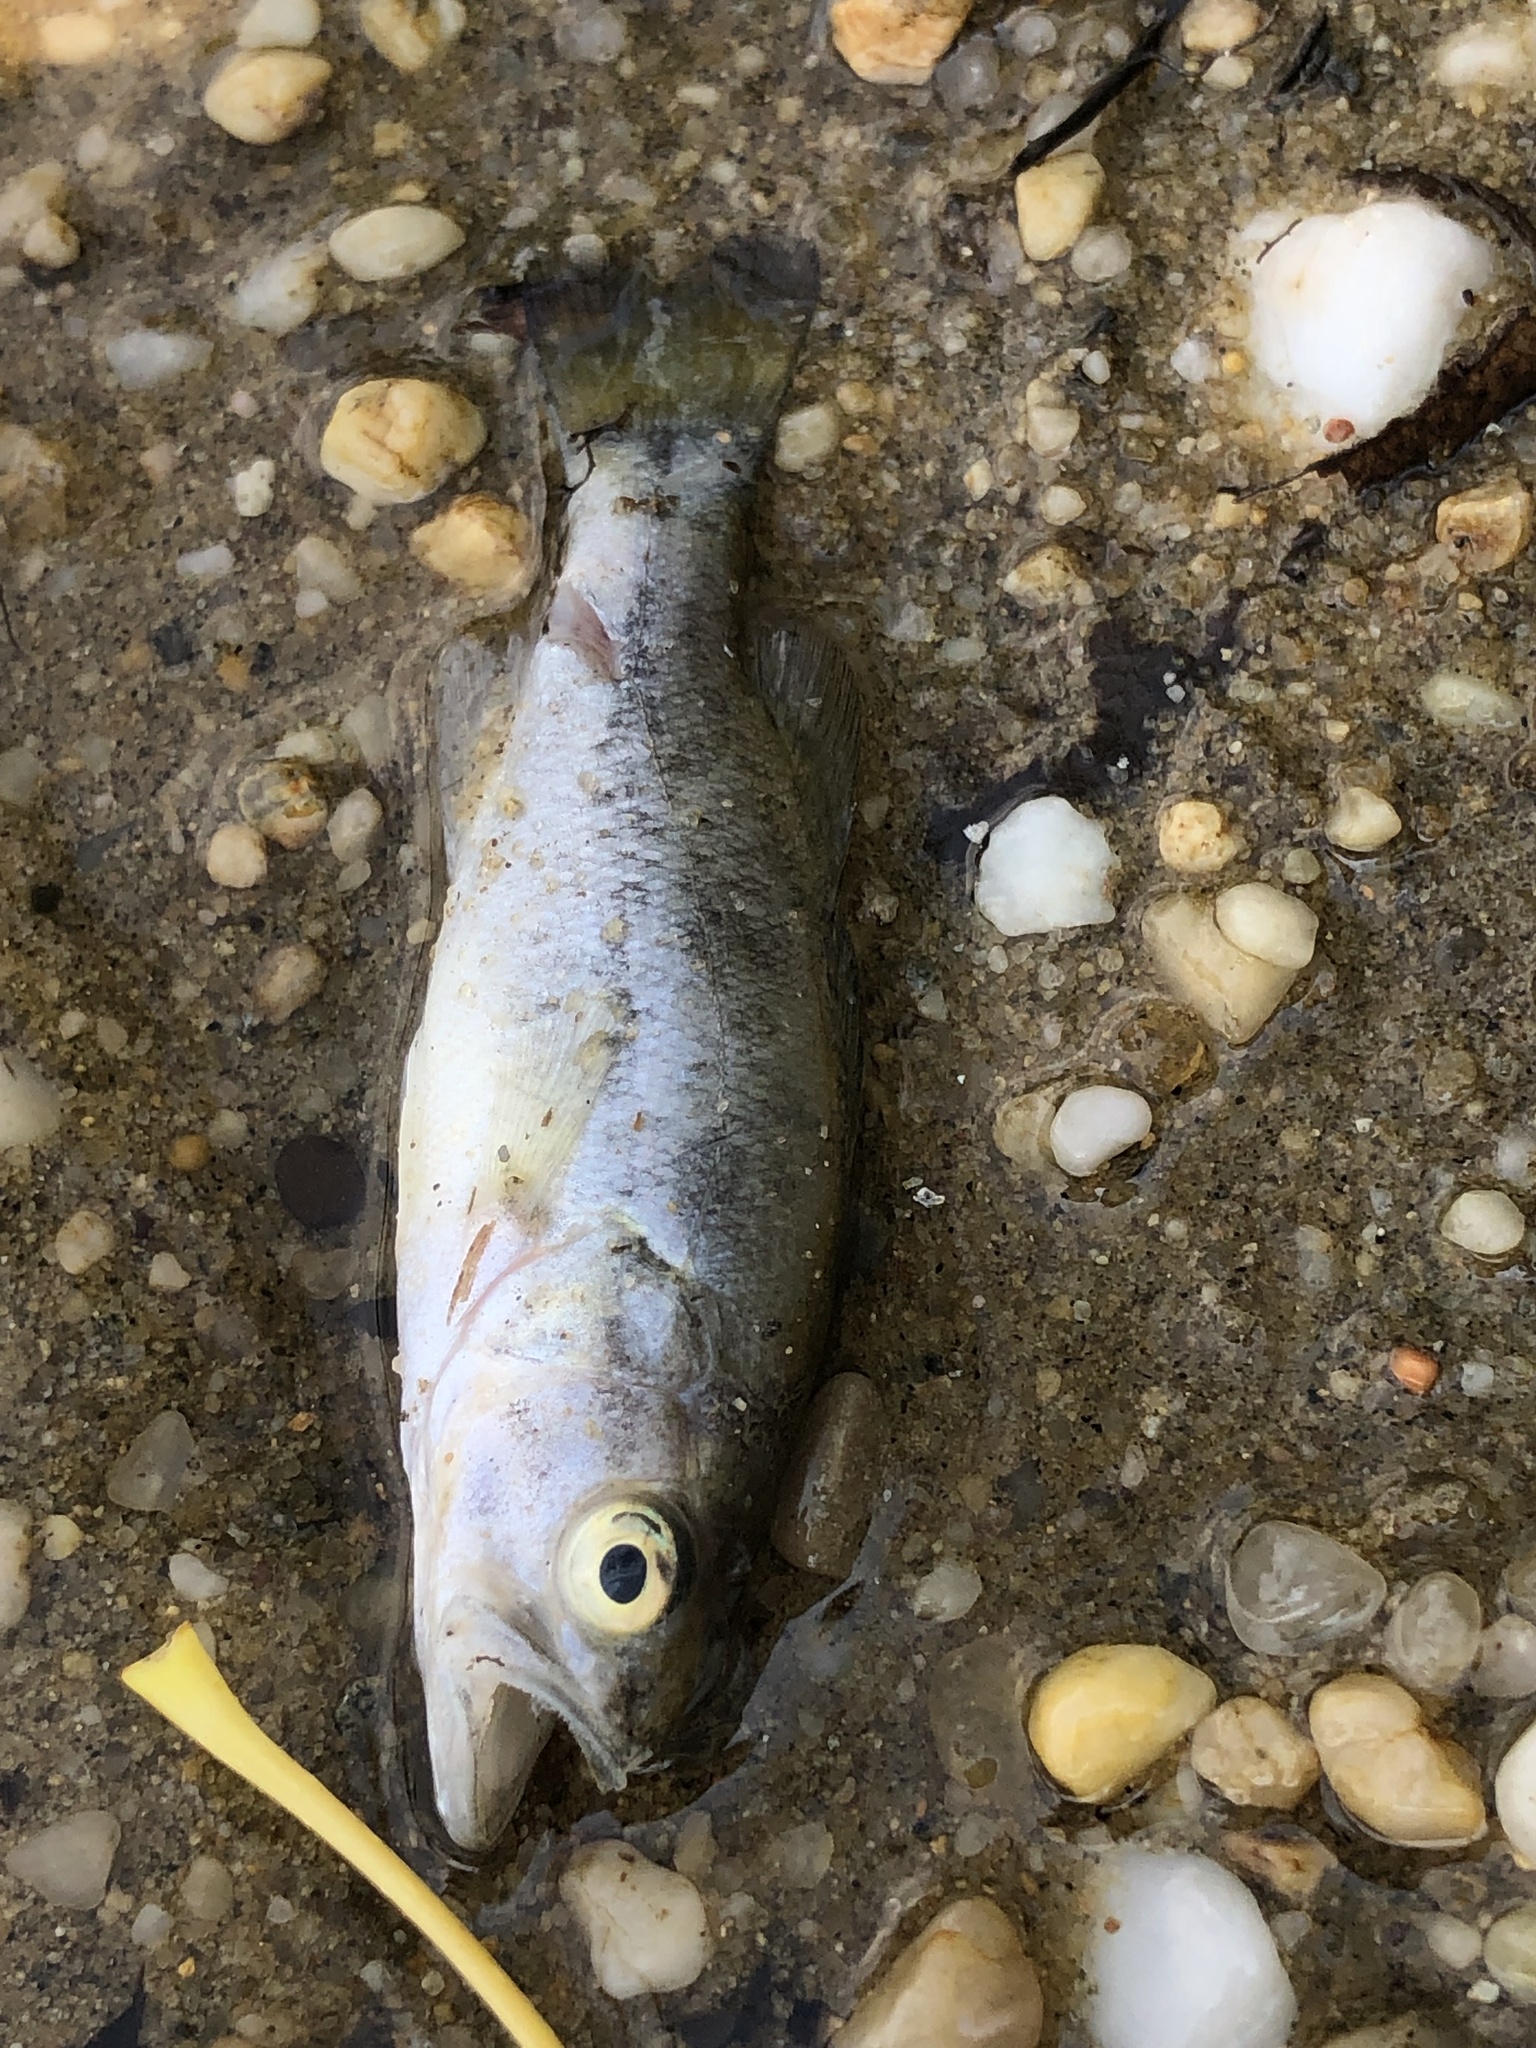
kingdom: Animalia
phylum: Chordata
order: Perciformes
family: Centrarchidae
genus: Micropterus
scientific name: Micropterus
